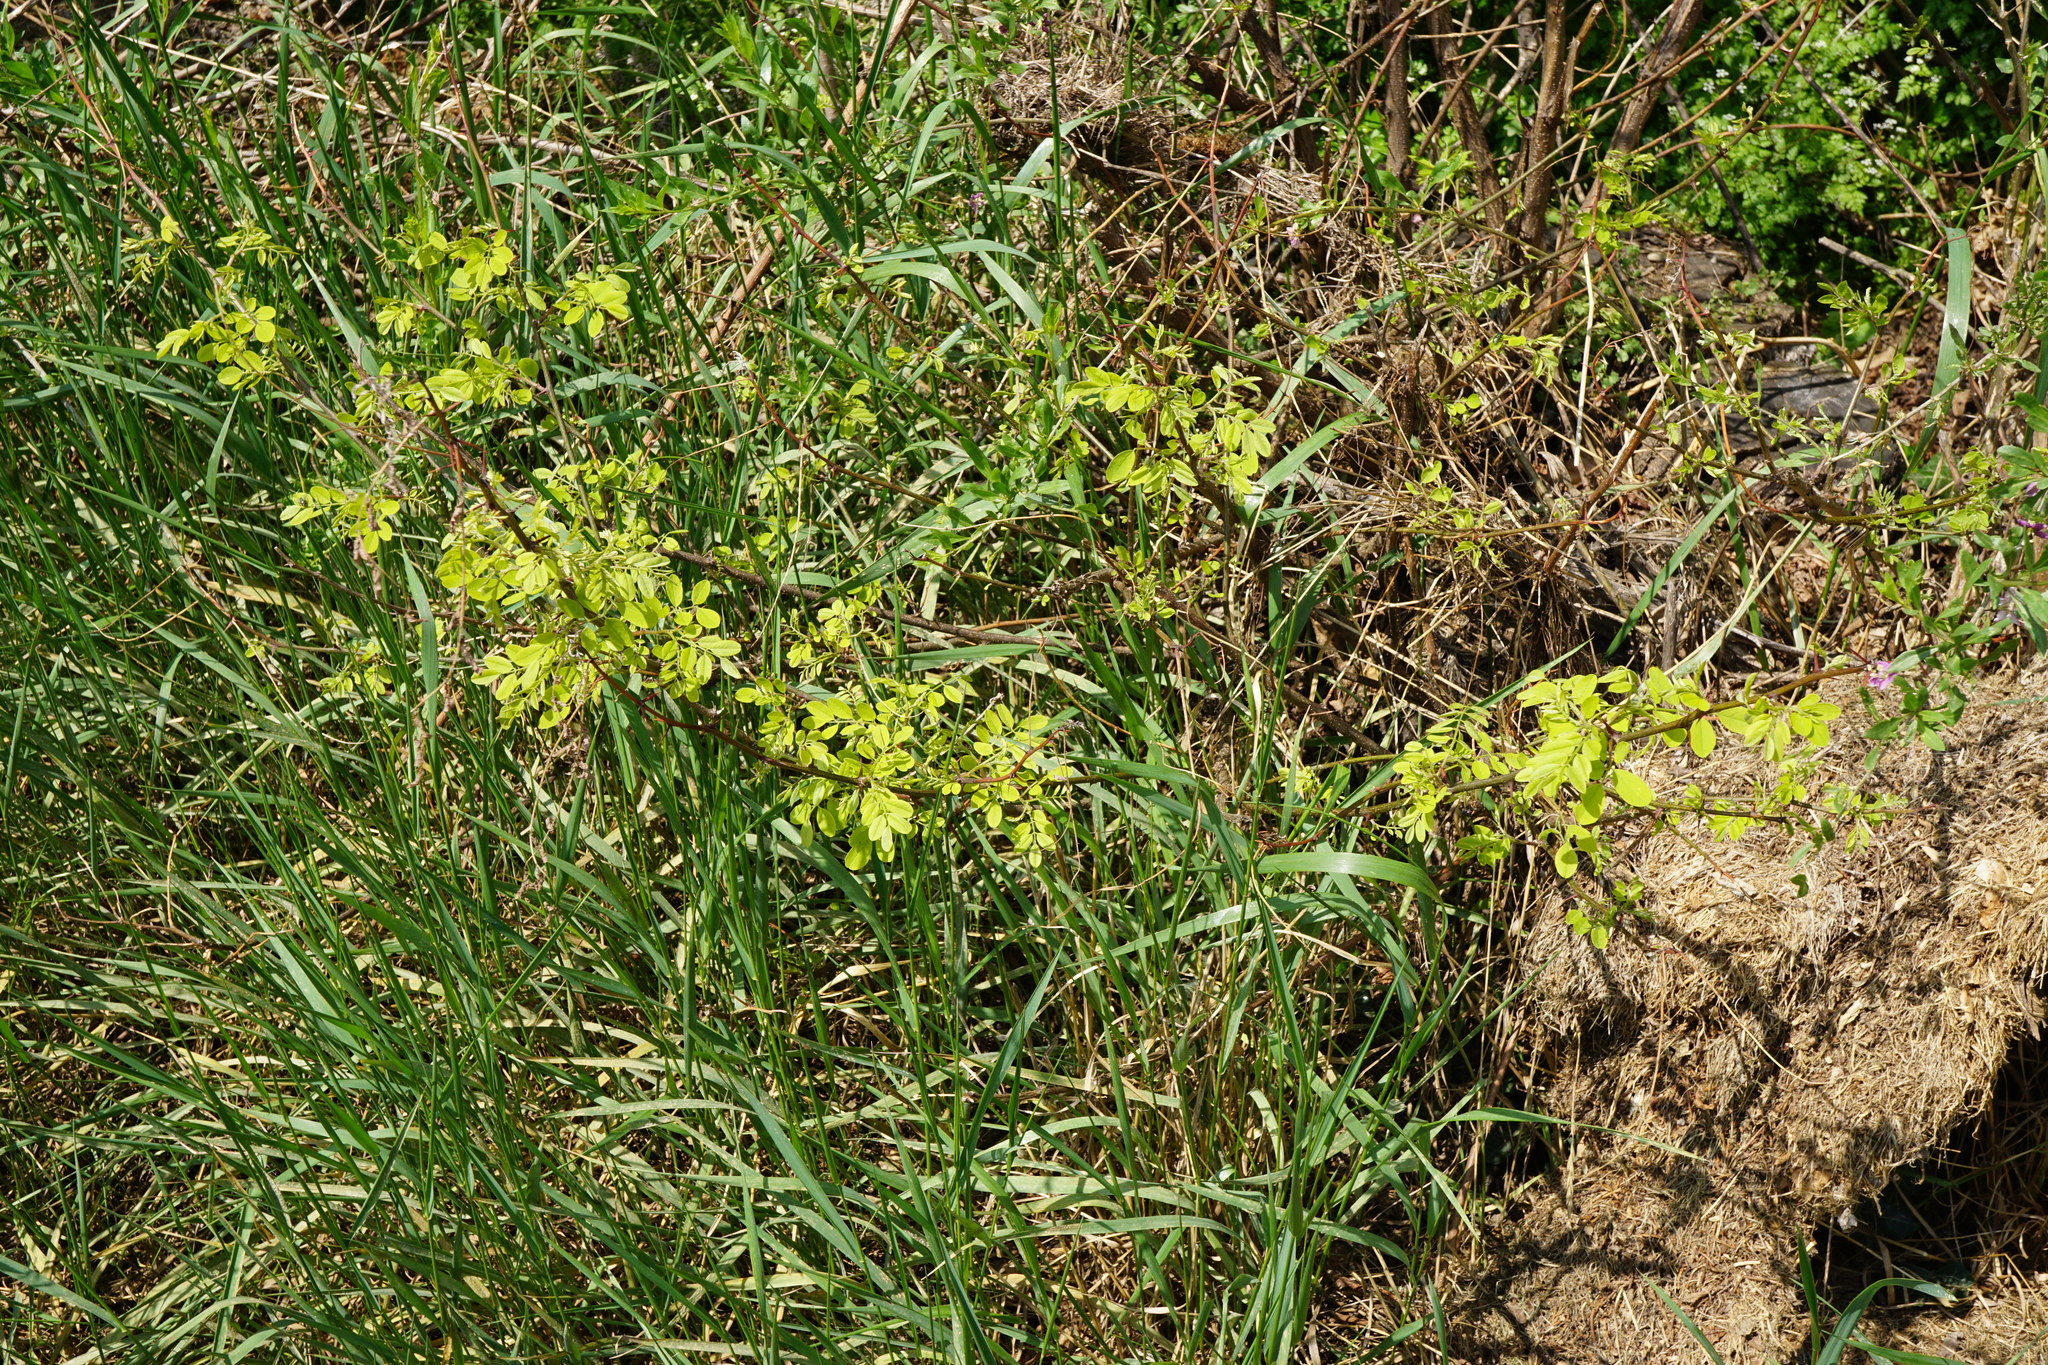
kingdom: Plantae
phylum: Tracheophyta
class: Magnoliopsida
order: Fabales
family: Fabaceae
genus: Robinia
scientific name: Robinia pseudoacacia
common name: Black locust
